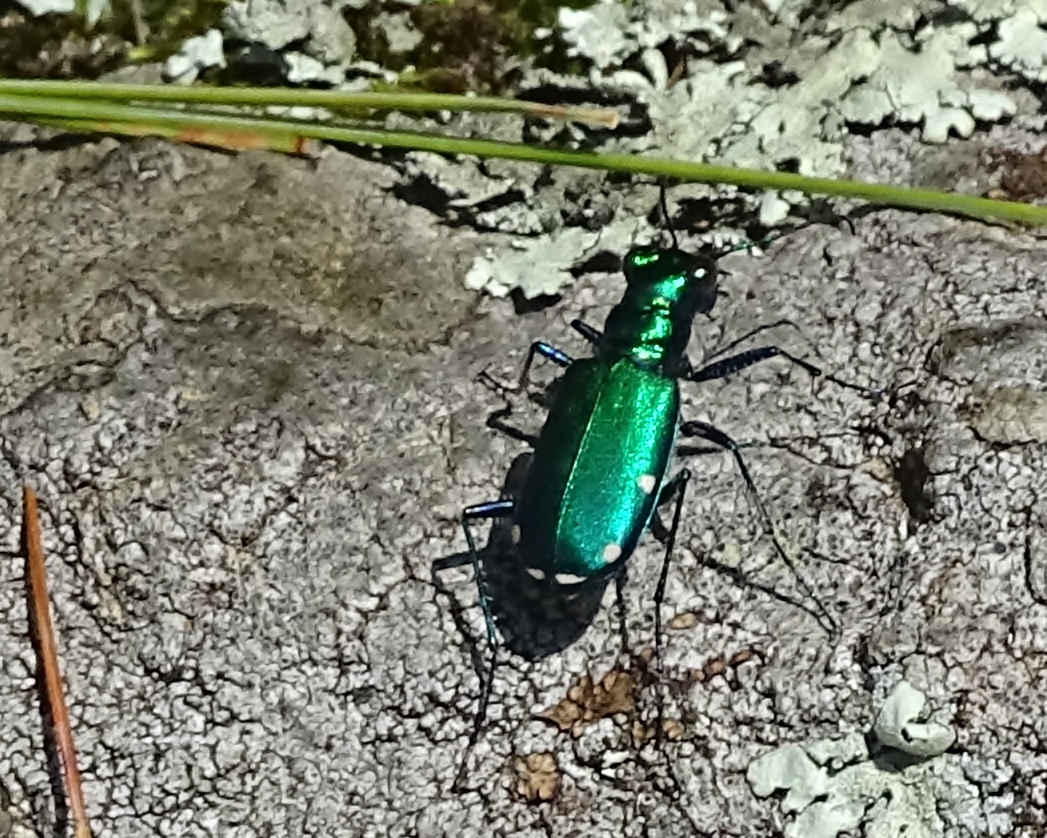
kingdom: Animalia
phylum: Arthropoda
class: Insecta
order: Coleoptera
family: Carabidae
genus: Cicindela
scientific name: Cicindela sexguttata
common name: Six-spotted tiger beetle
